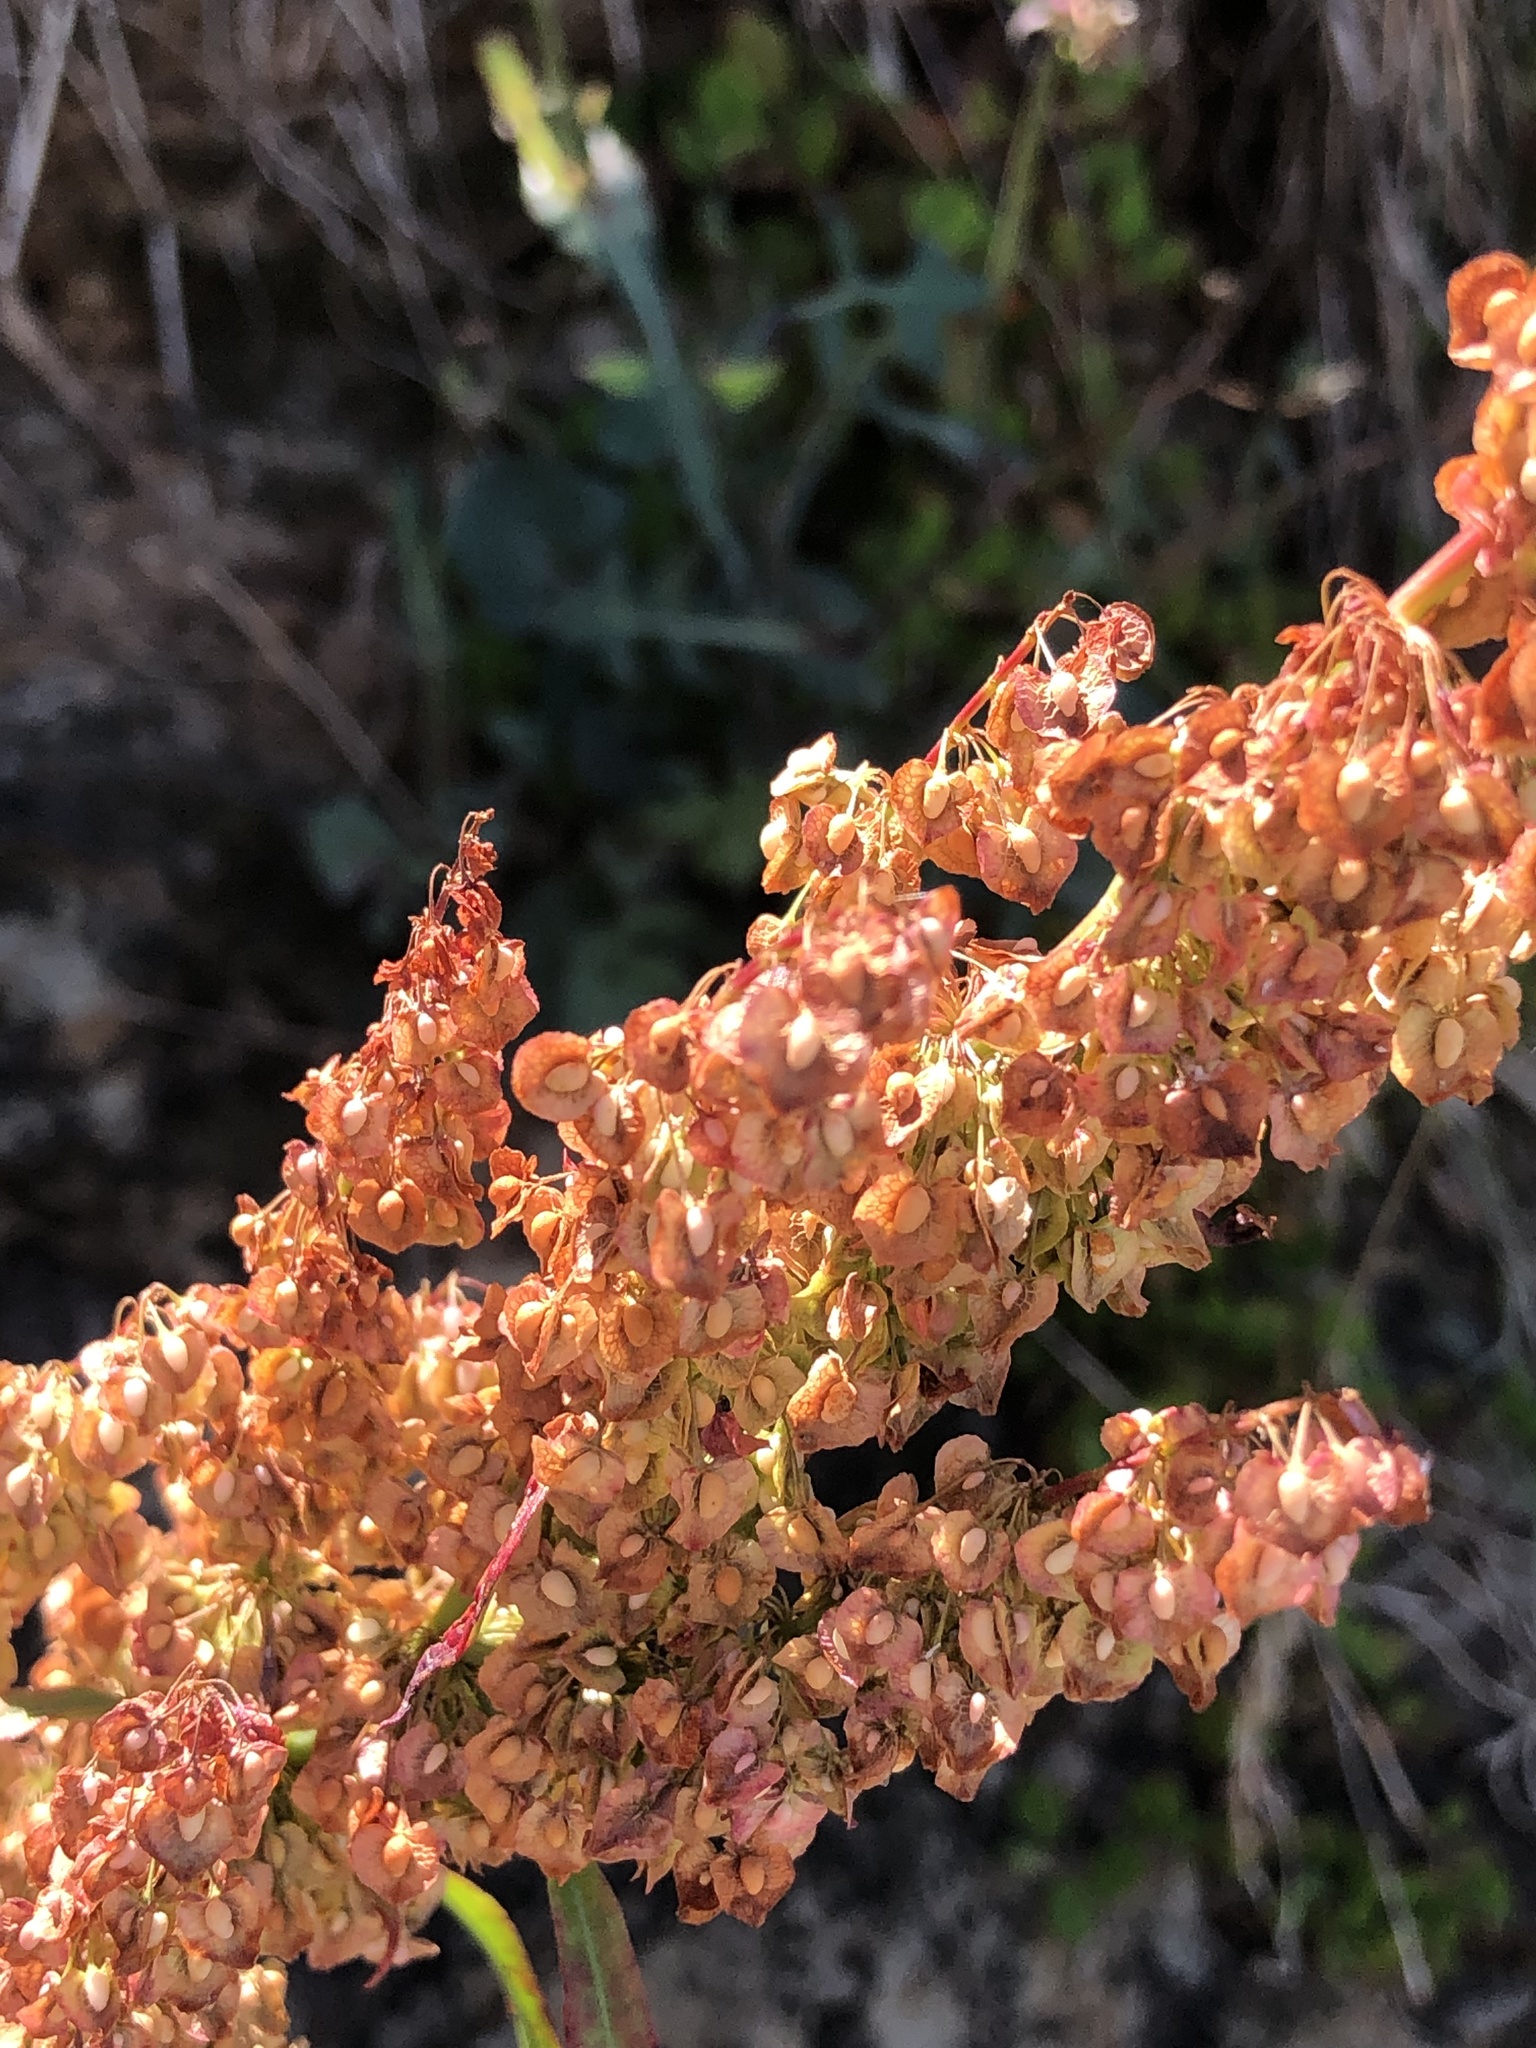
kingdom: Plantae
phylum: Tracheophyta
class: Magnoliopsida
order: Caryophyllales
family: Polygonaceae
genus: Rumex
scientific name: Rumex crispus
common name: Curled dock
